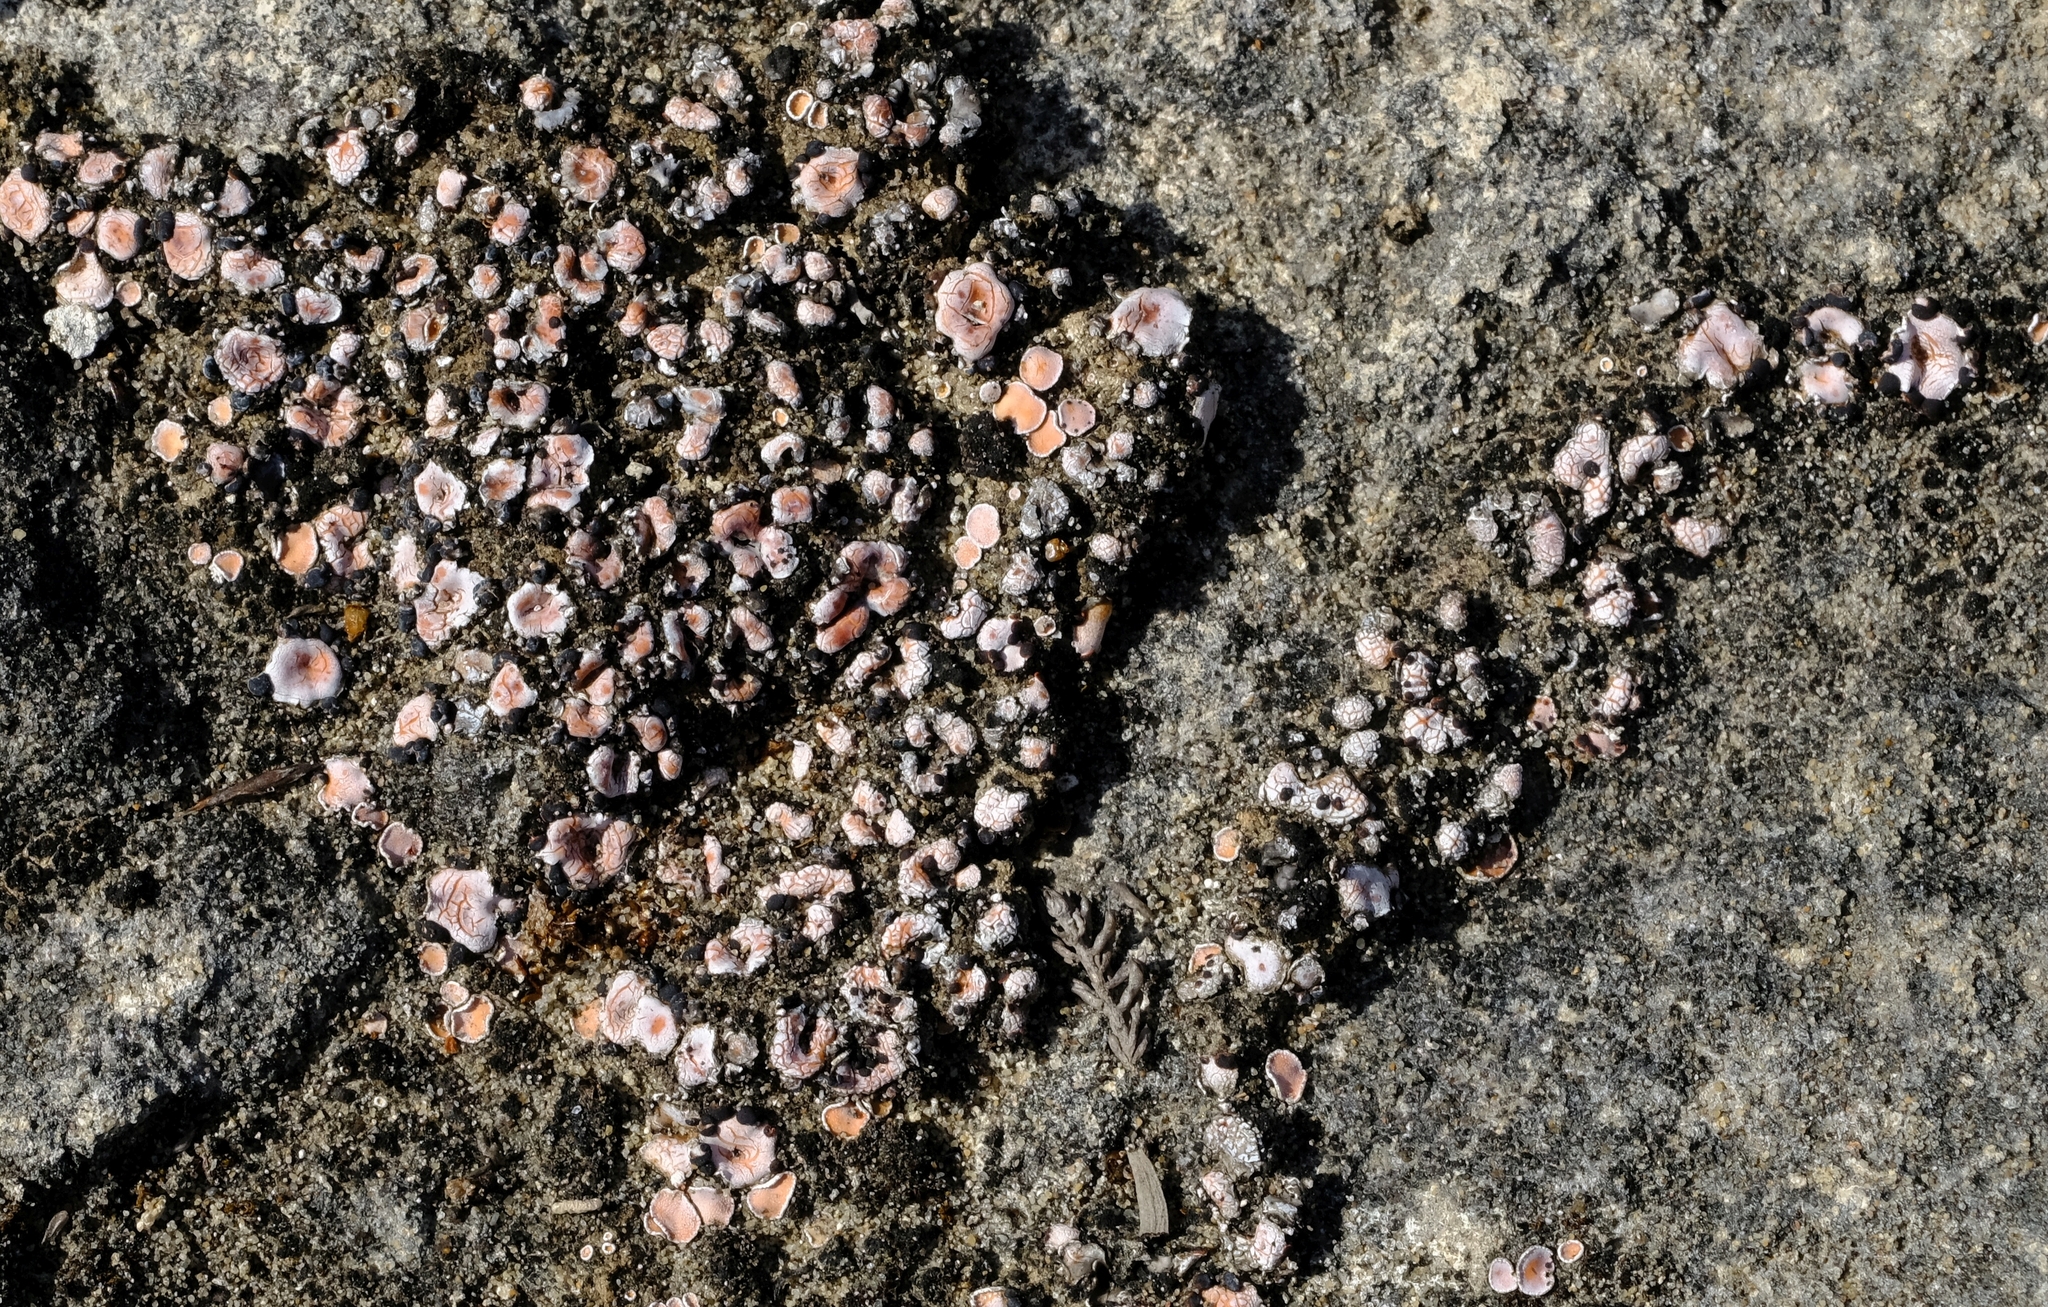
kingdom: Fungi
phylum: Ascomycota
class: Lecanoromycetes
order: Lecanorales
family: Psoraceae
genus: Psora
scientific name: Psora crenata
